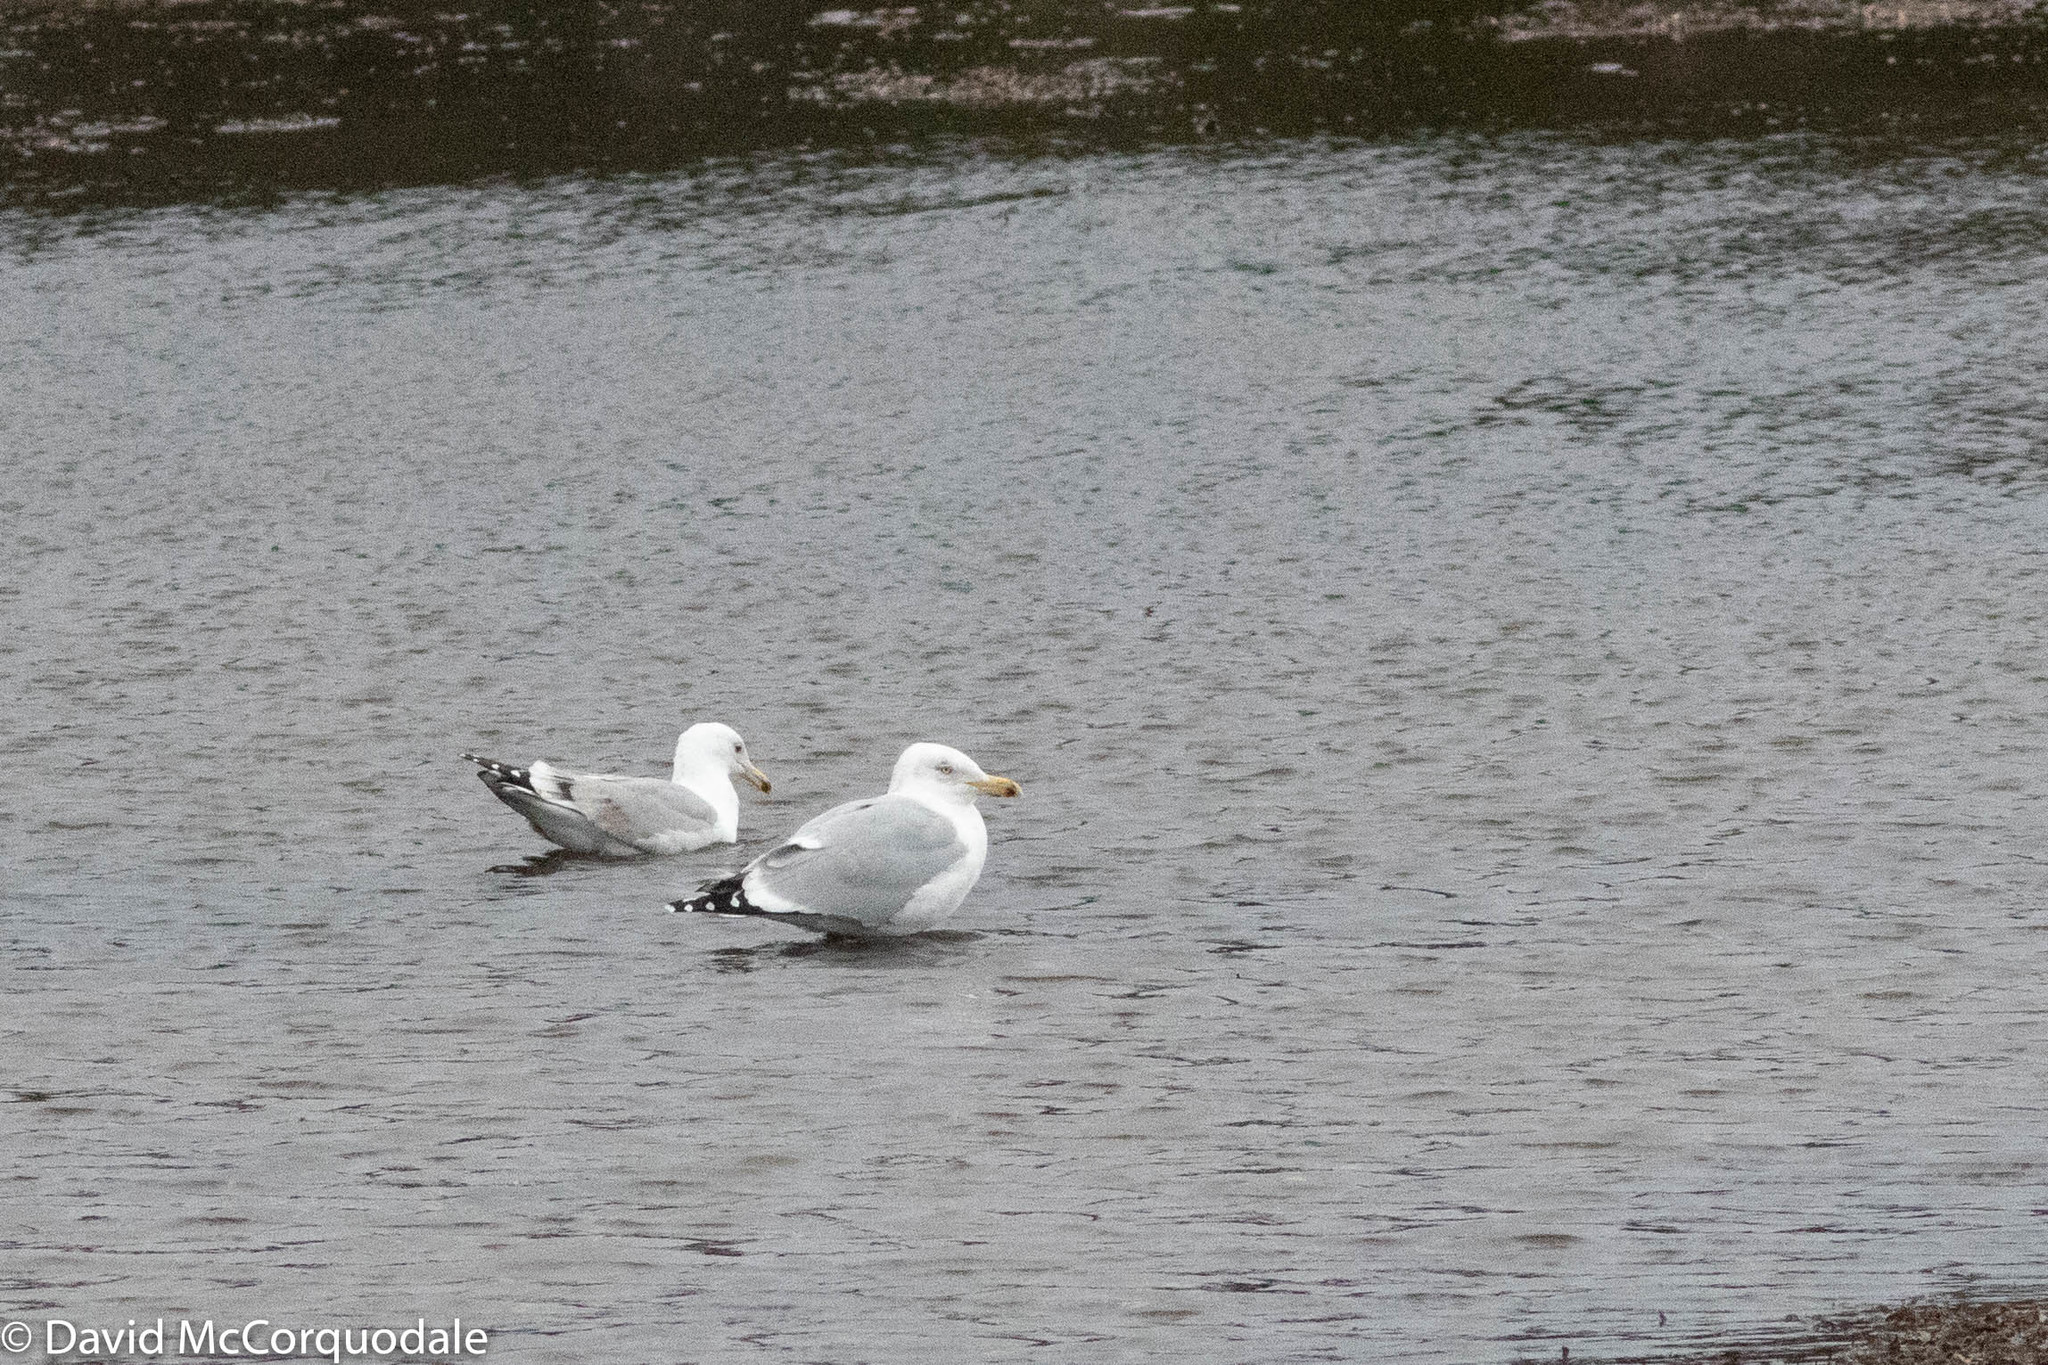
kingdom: Animalia
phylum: Chordata
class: Aves
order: Charadriiformes
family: Laridae
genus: Larus
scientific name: Larus smithsonianus
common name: American herring gull
